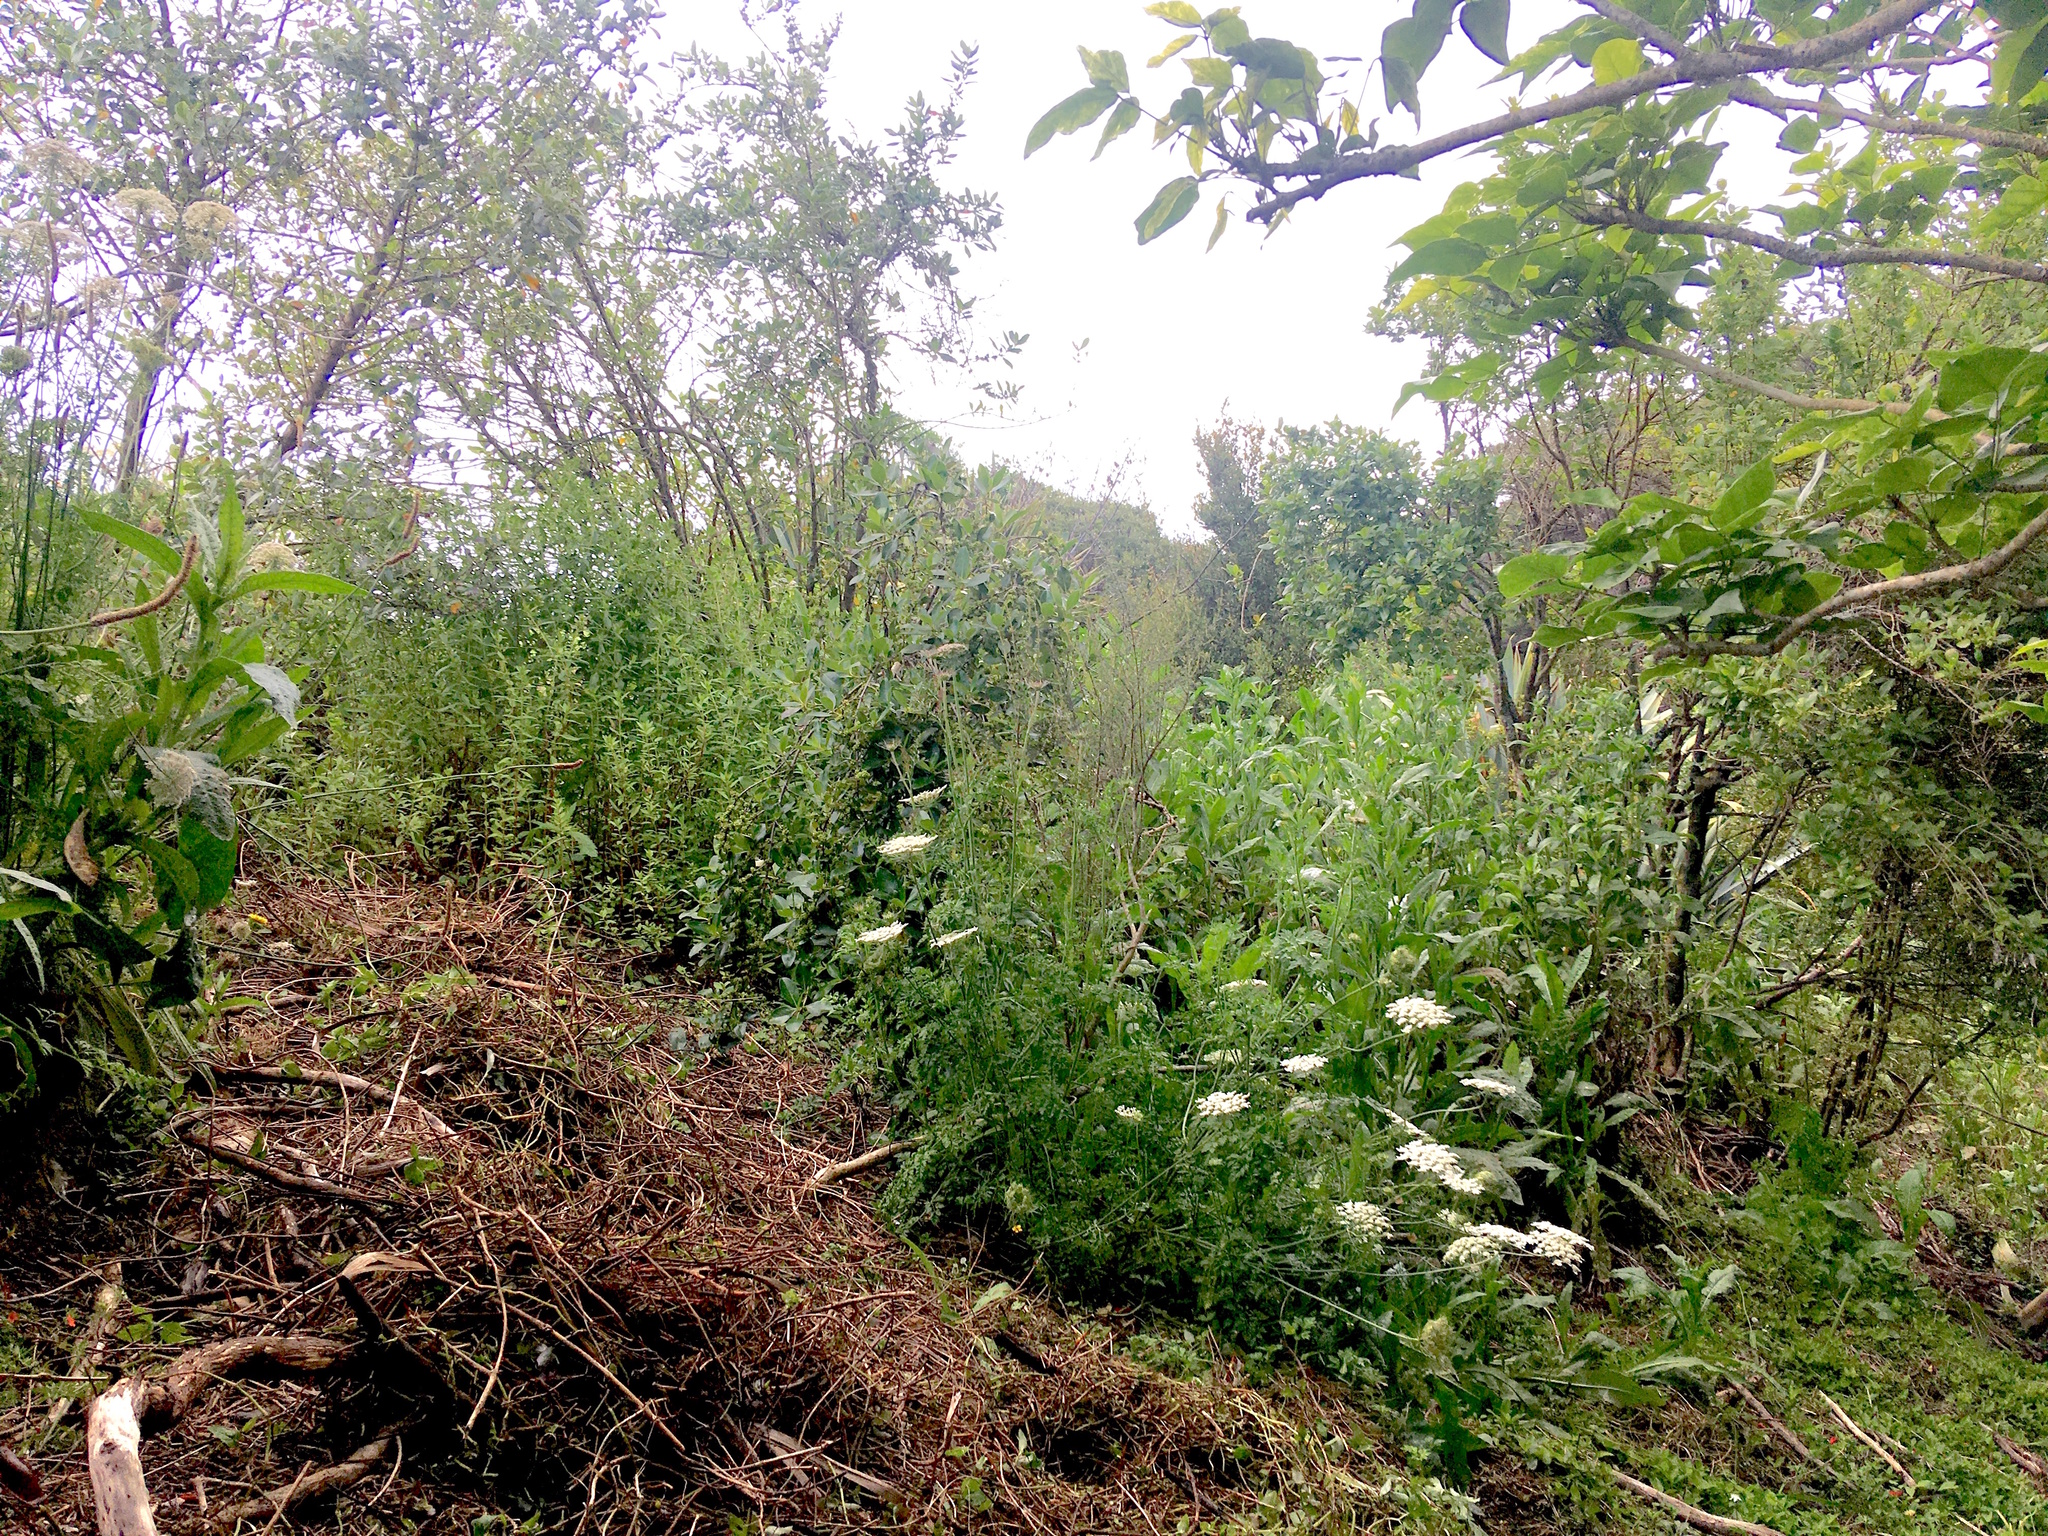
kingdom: Plantae
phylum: Tracheophyta
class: Magnoliopsida
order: Apiales
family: Apiaceae
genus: Daucus
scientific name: Daucus carota
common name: Wild carrot
